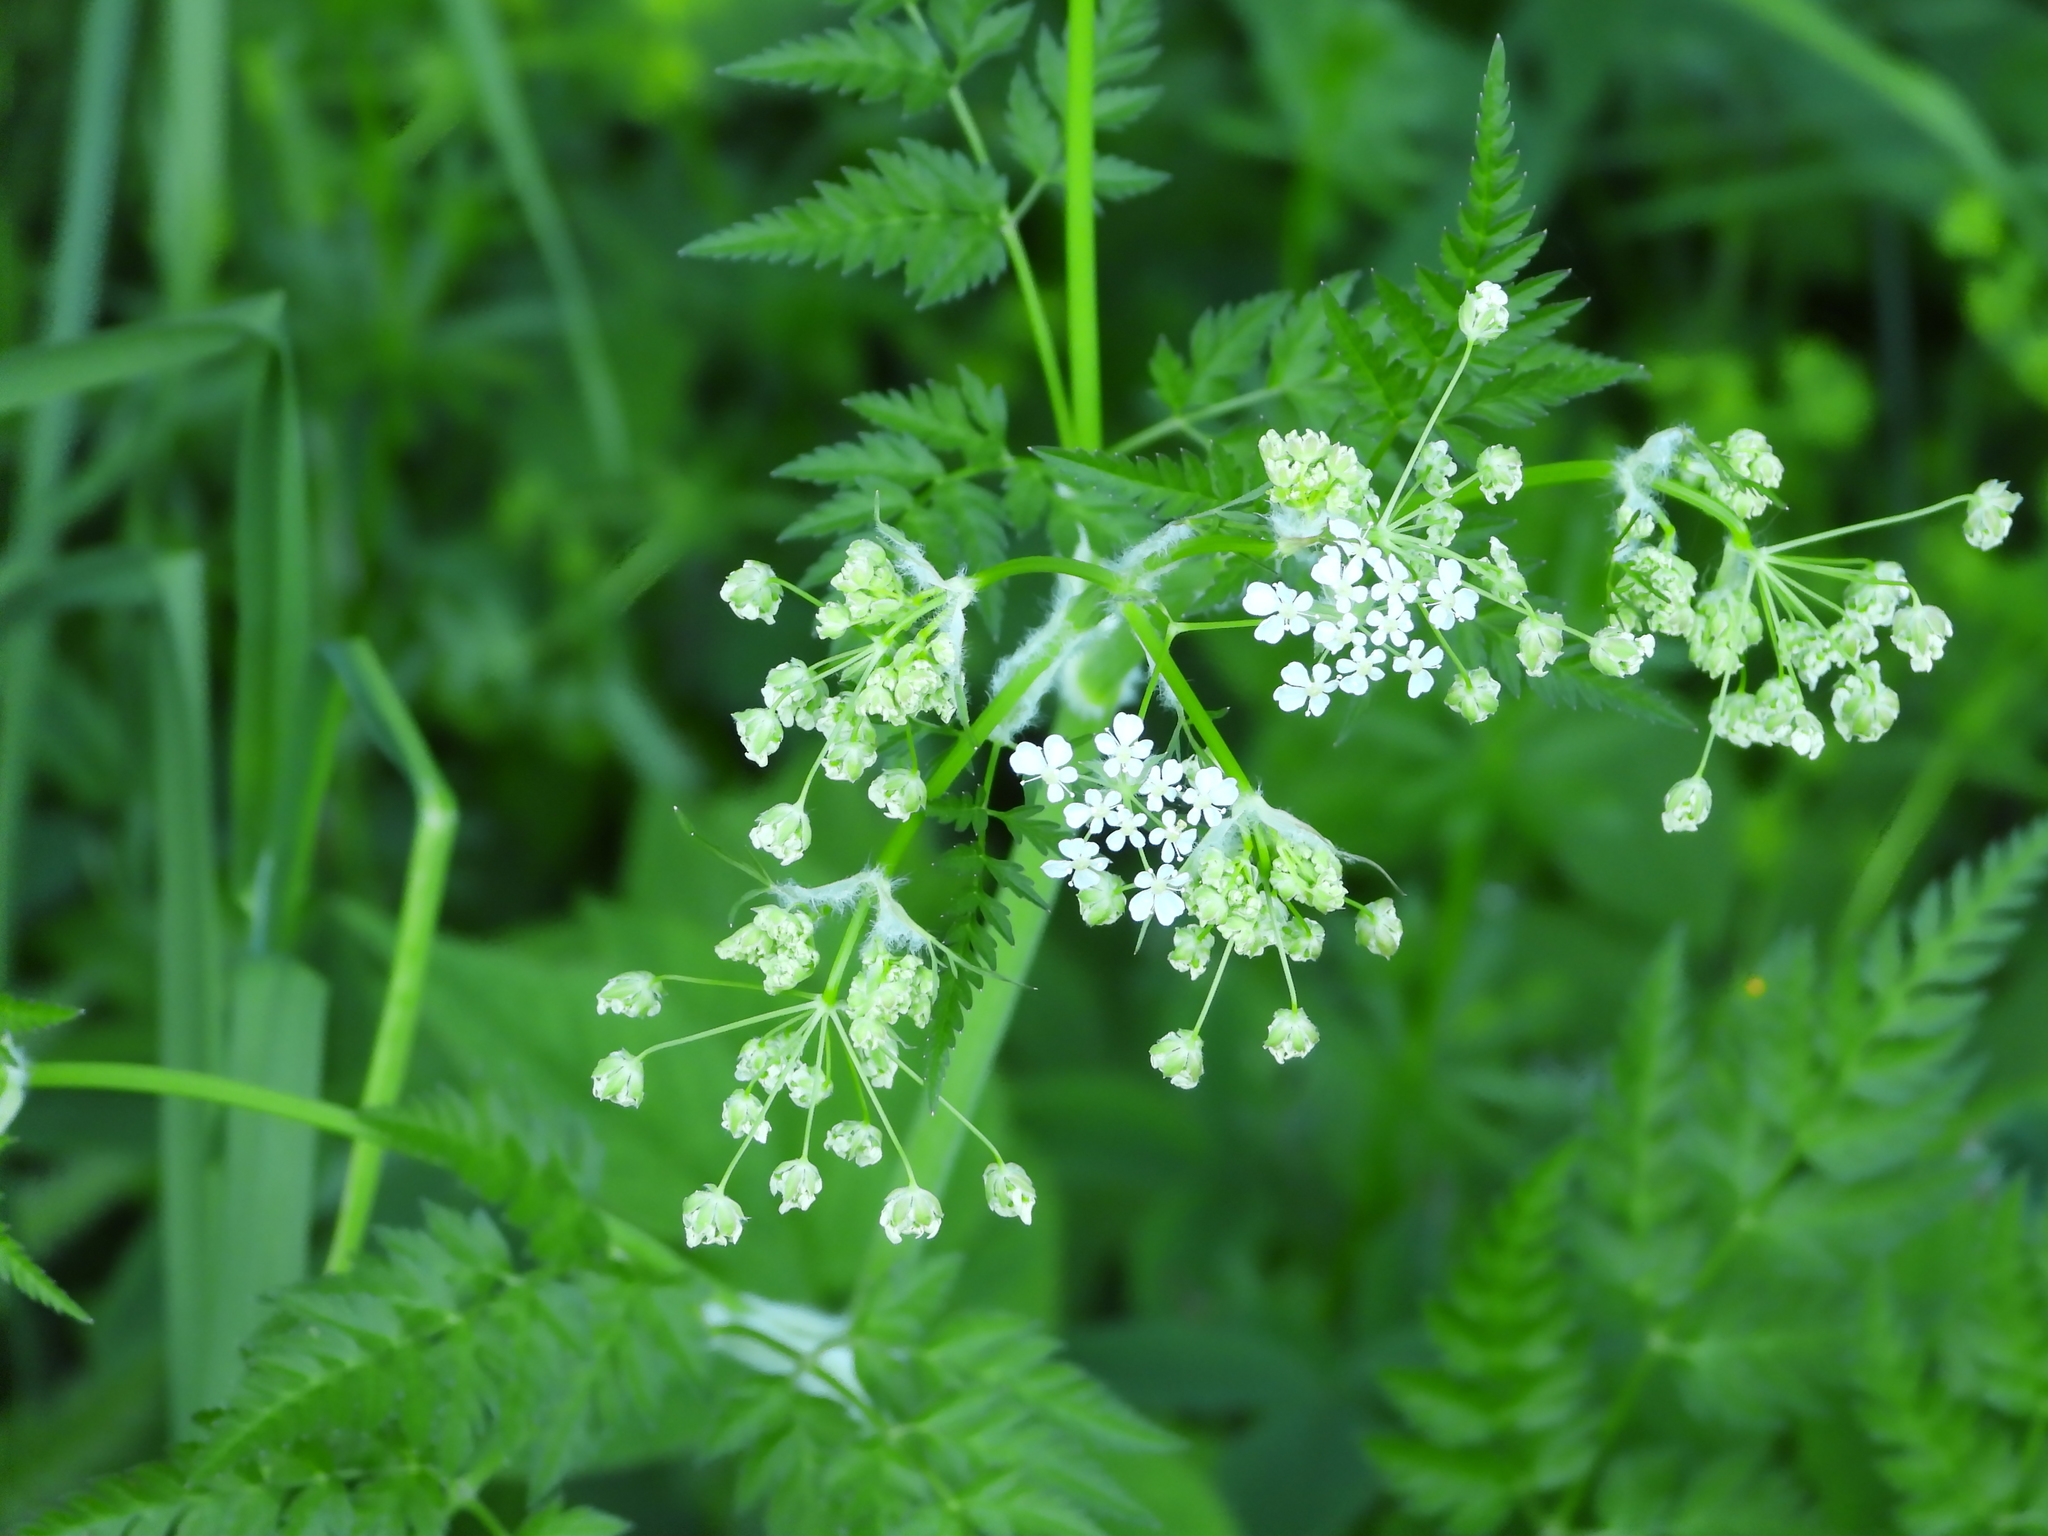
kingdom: Plantae
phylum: Tracheophyta
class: Magnoliopsida
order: Apiales
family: Apiaceae
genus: Anthriscus
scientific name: Anthriscus sylvestris
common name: Cow parsley
